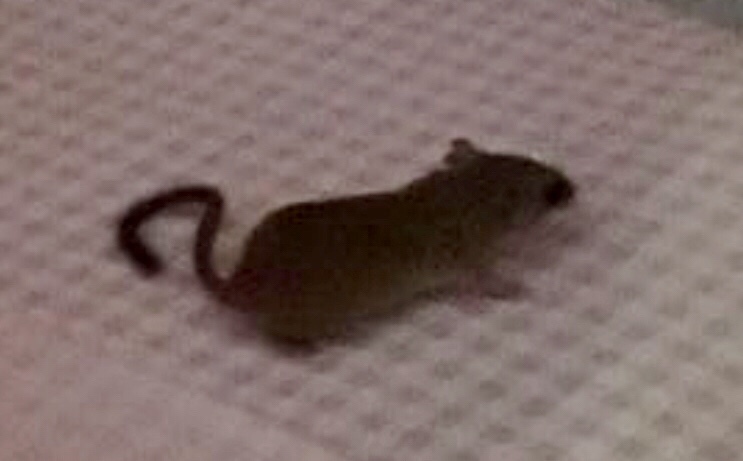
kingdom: Animalia
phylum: Chordata
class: Mammalia
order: Rodentia
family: Cricetidae
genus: Otonyctomys
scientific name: Otonyctomys hatti
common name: Hatt's vesper rat
